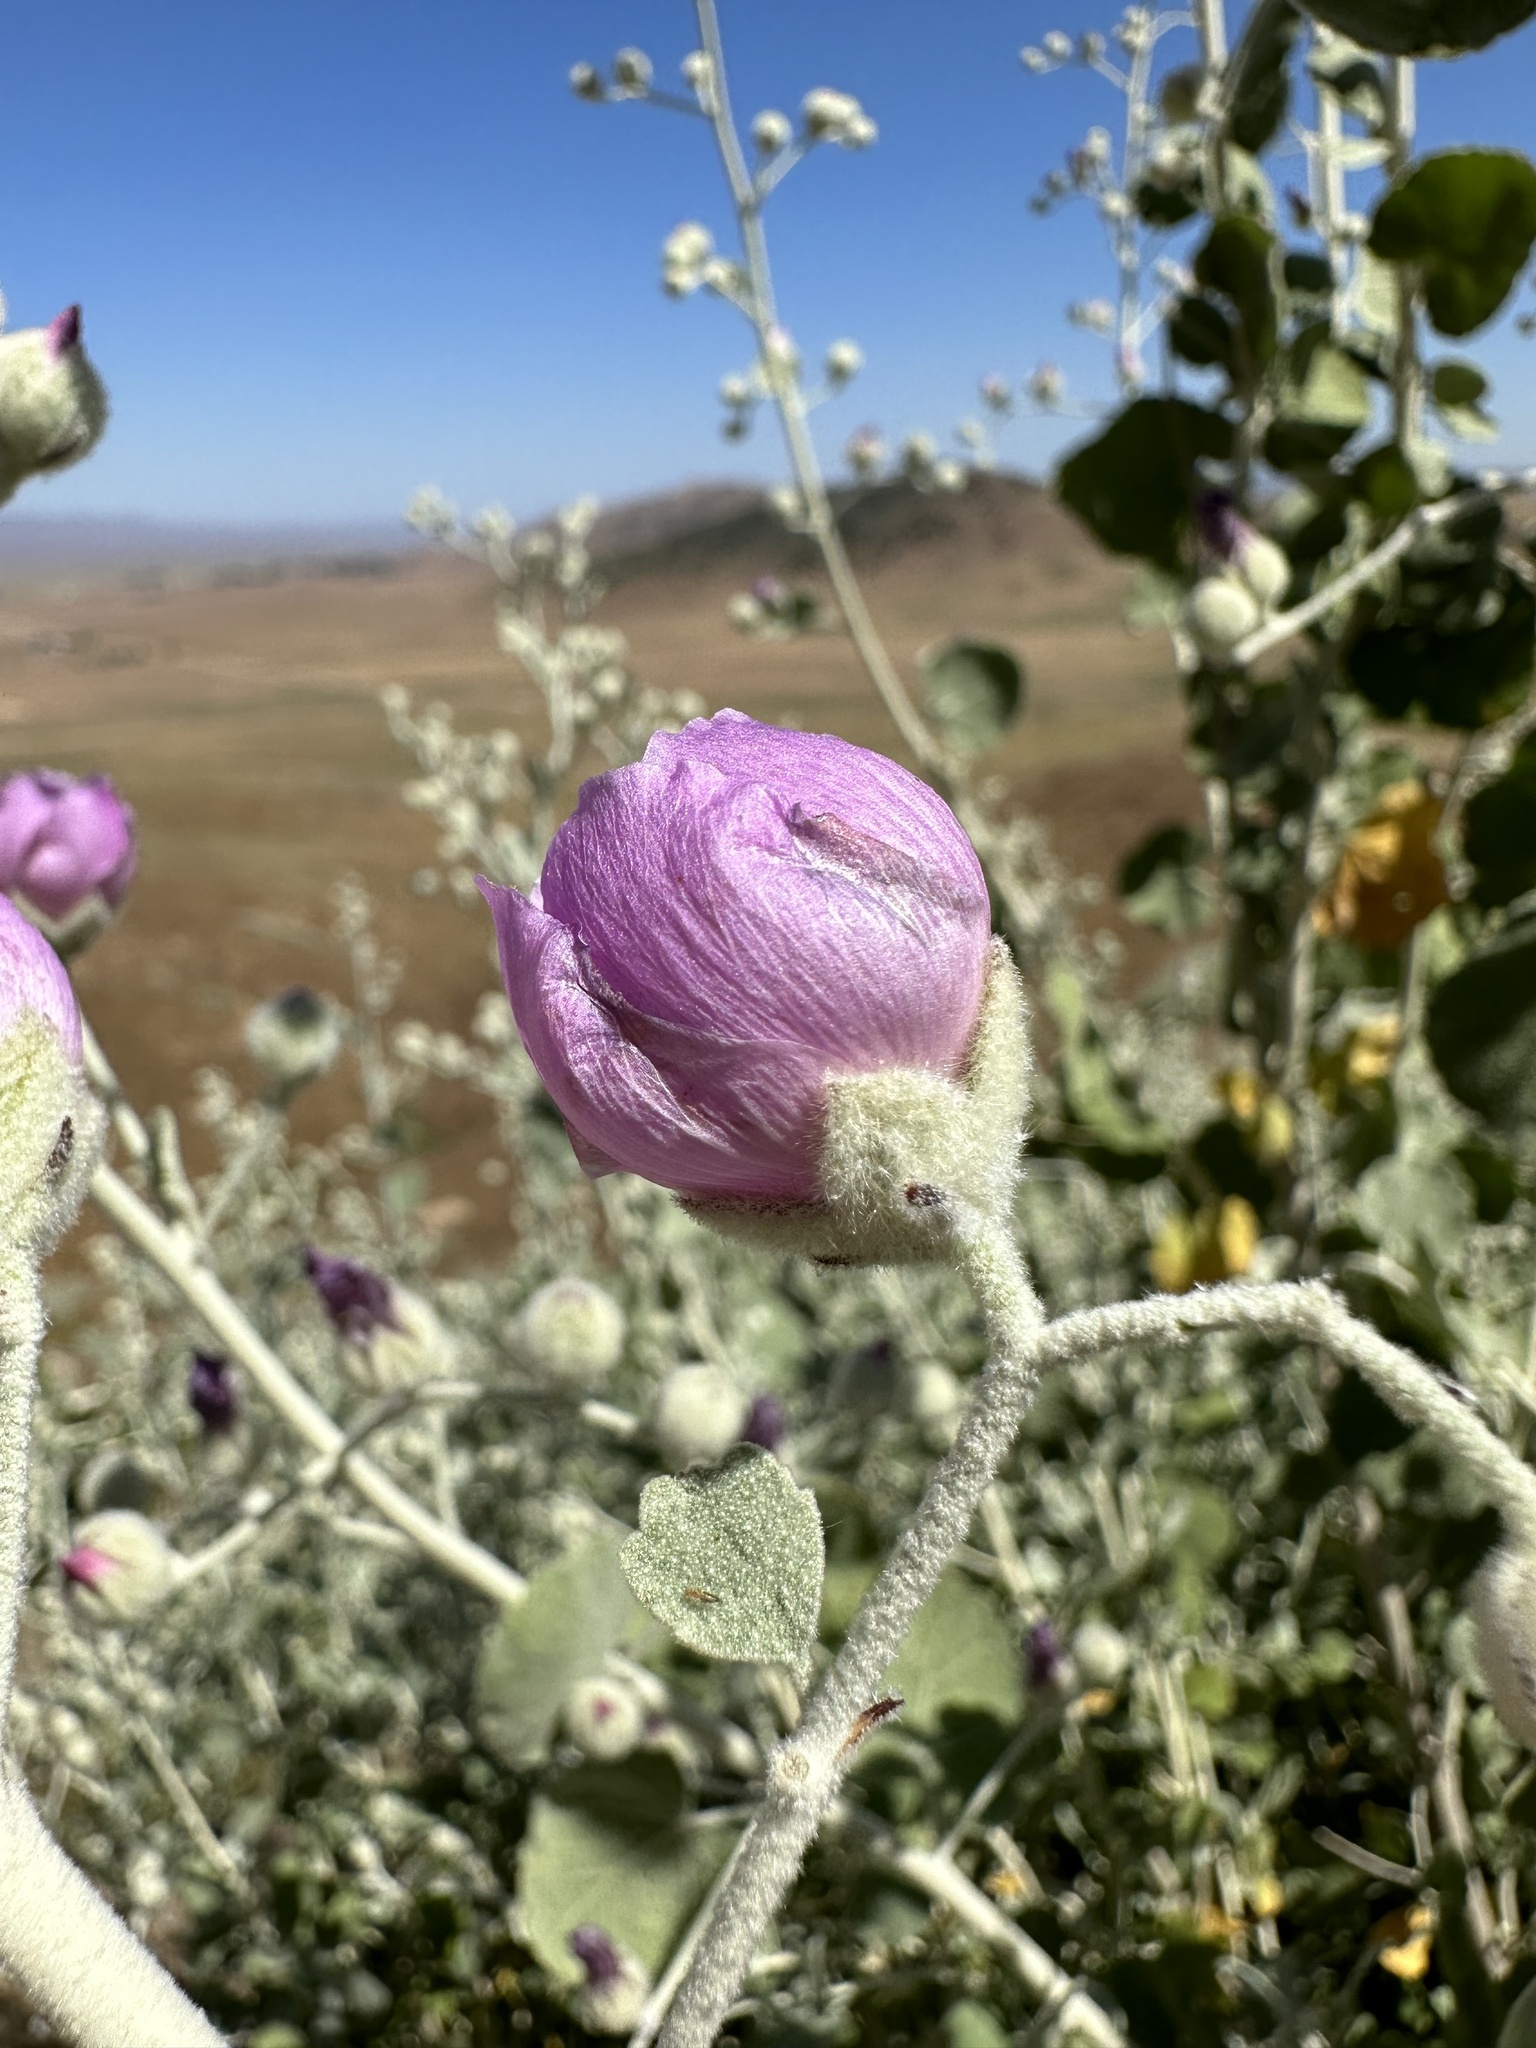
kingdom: Plantae
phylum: Tracheophyta
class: Magnoliopsida
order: Malvales
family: Malvaceae
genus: Malacothamnus
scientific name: Malacothamnus jonesii
